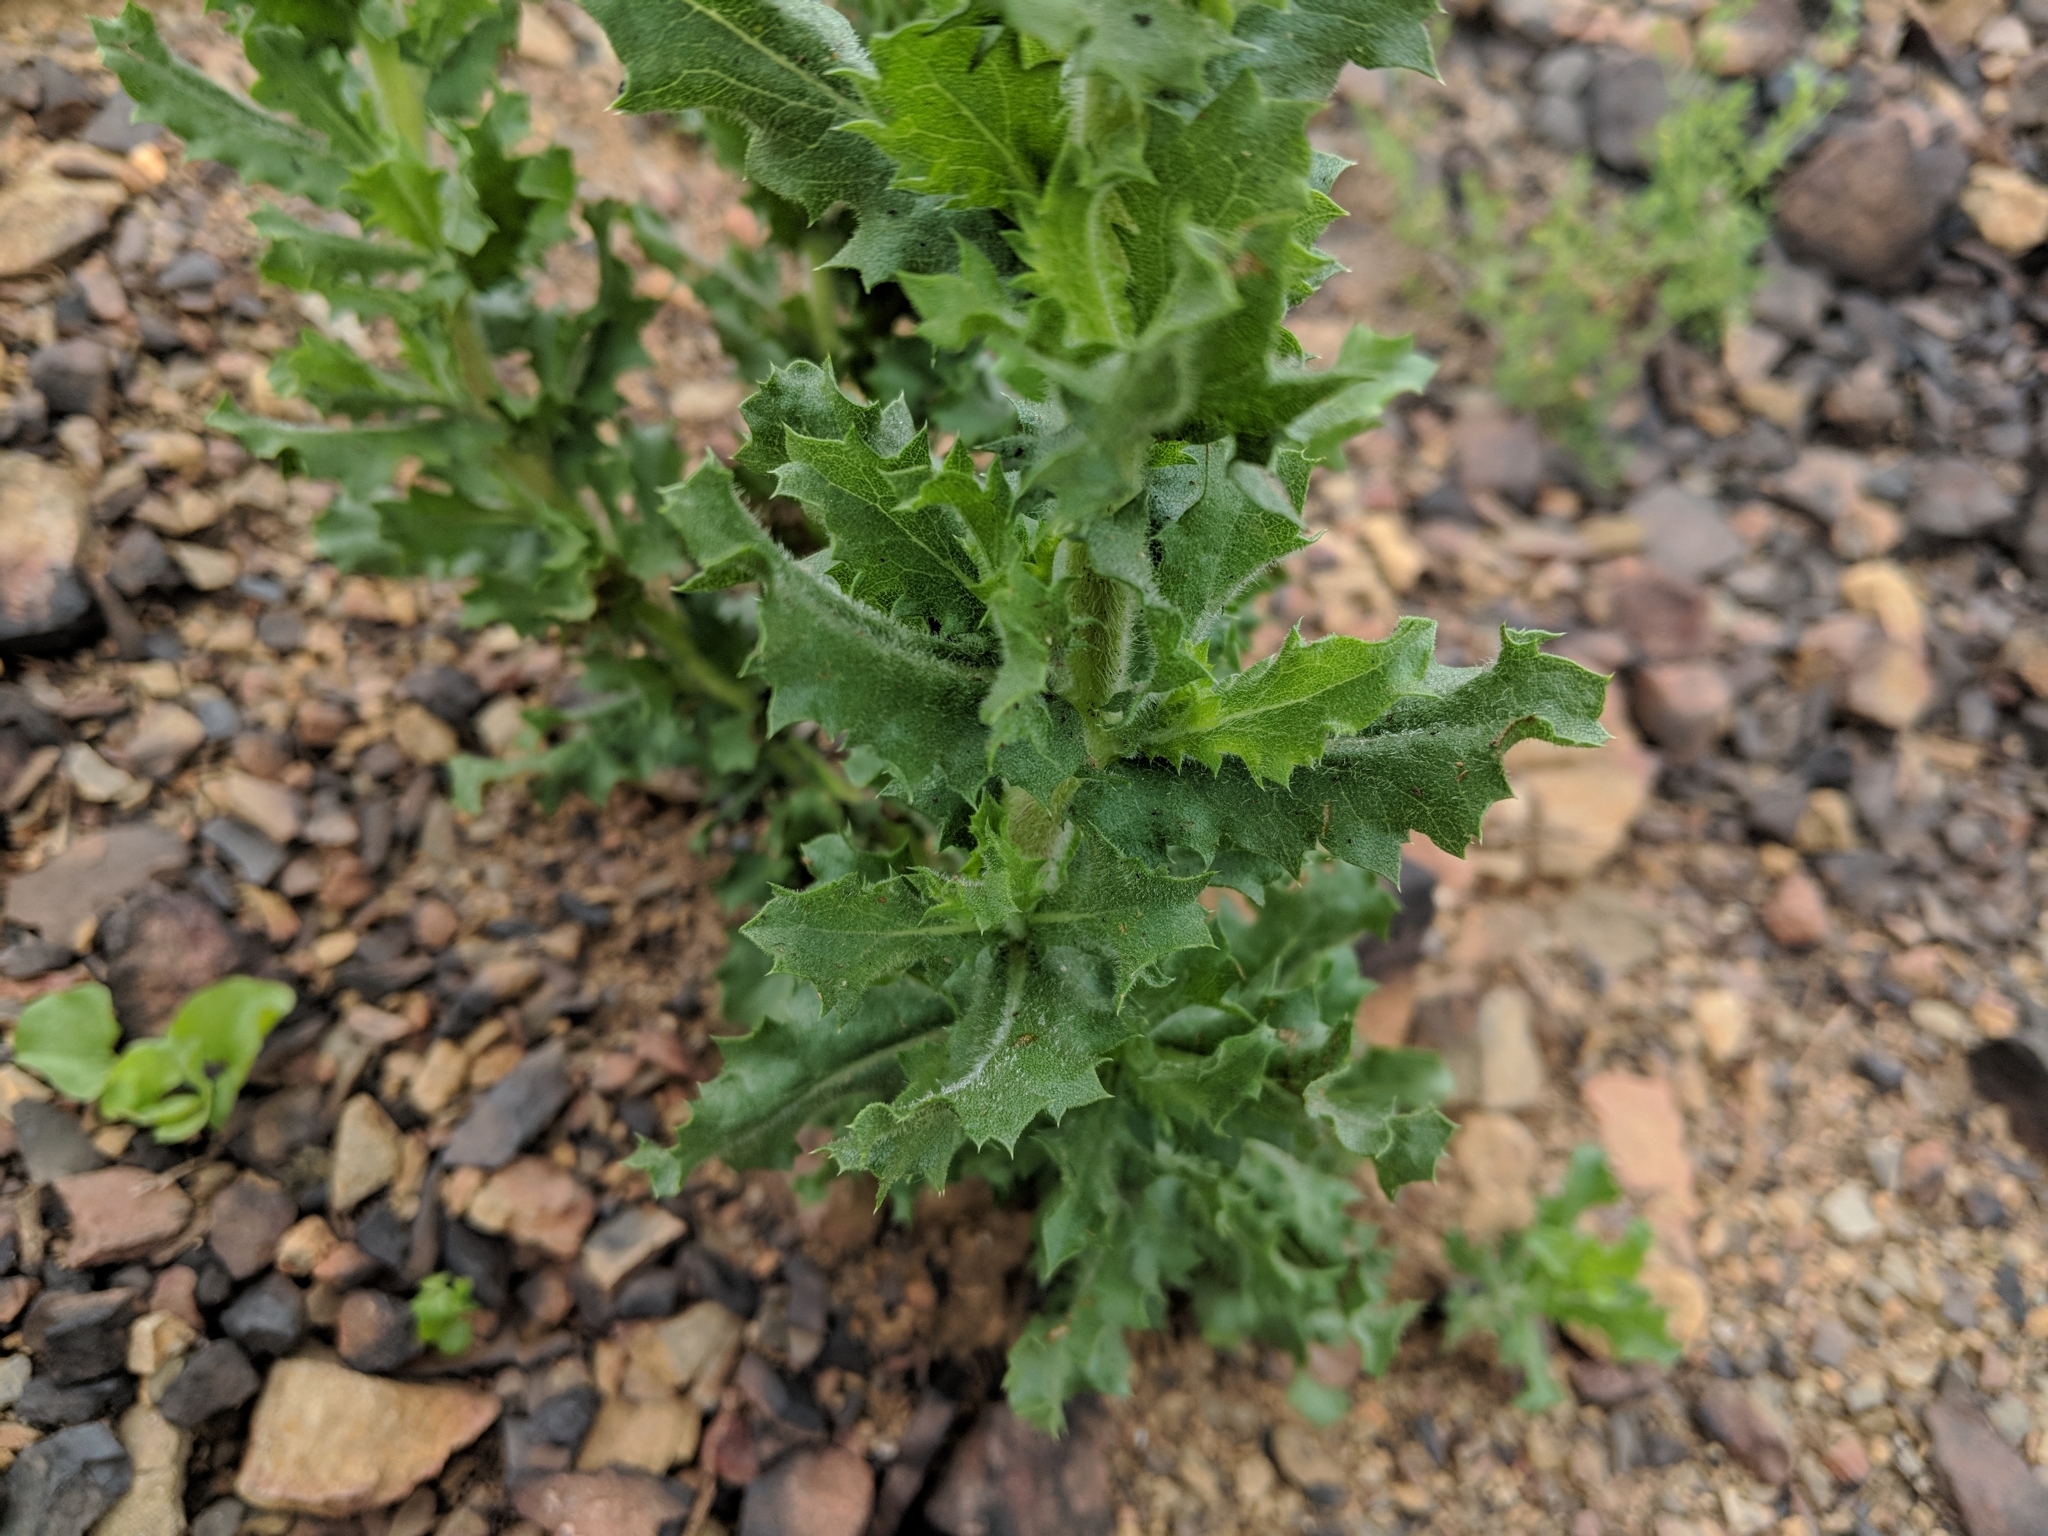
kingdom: Plantae
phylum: Tracheophyta
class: Magnoliopsida
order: Asterales
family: Asteraceae
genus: Hazardia
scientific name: Hazardia squarrosa
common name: Saw-tooth goldenbush
